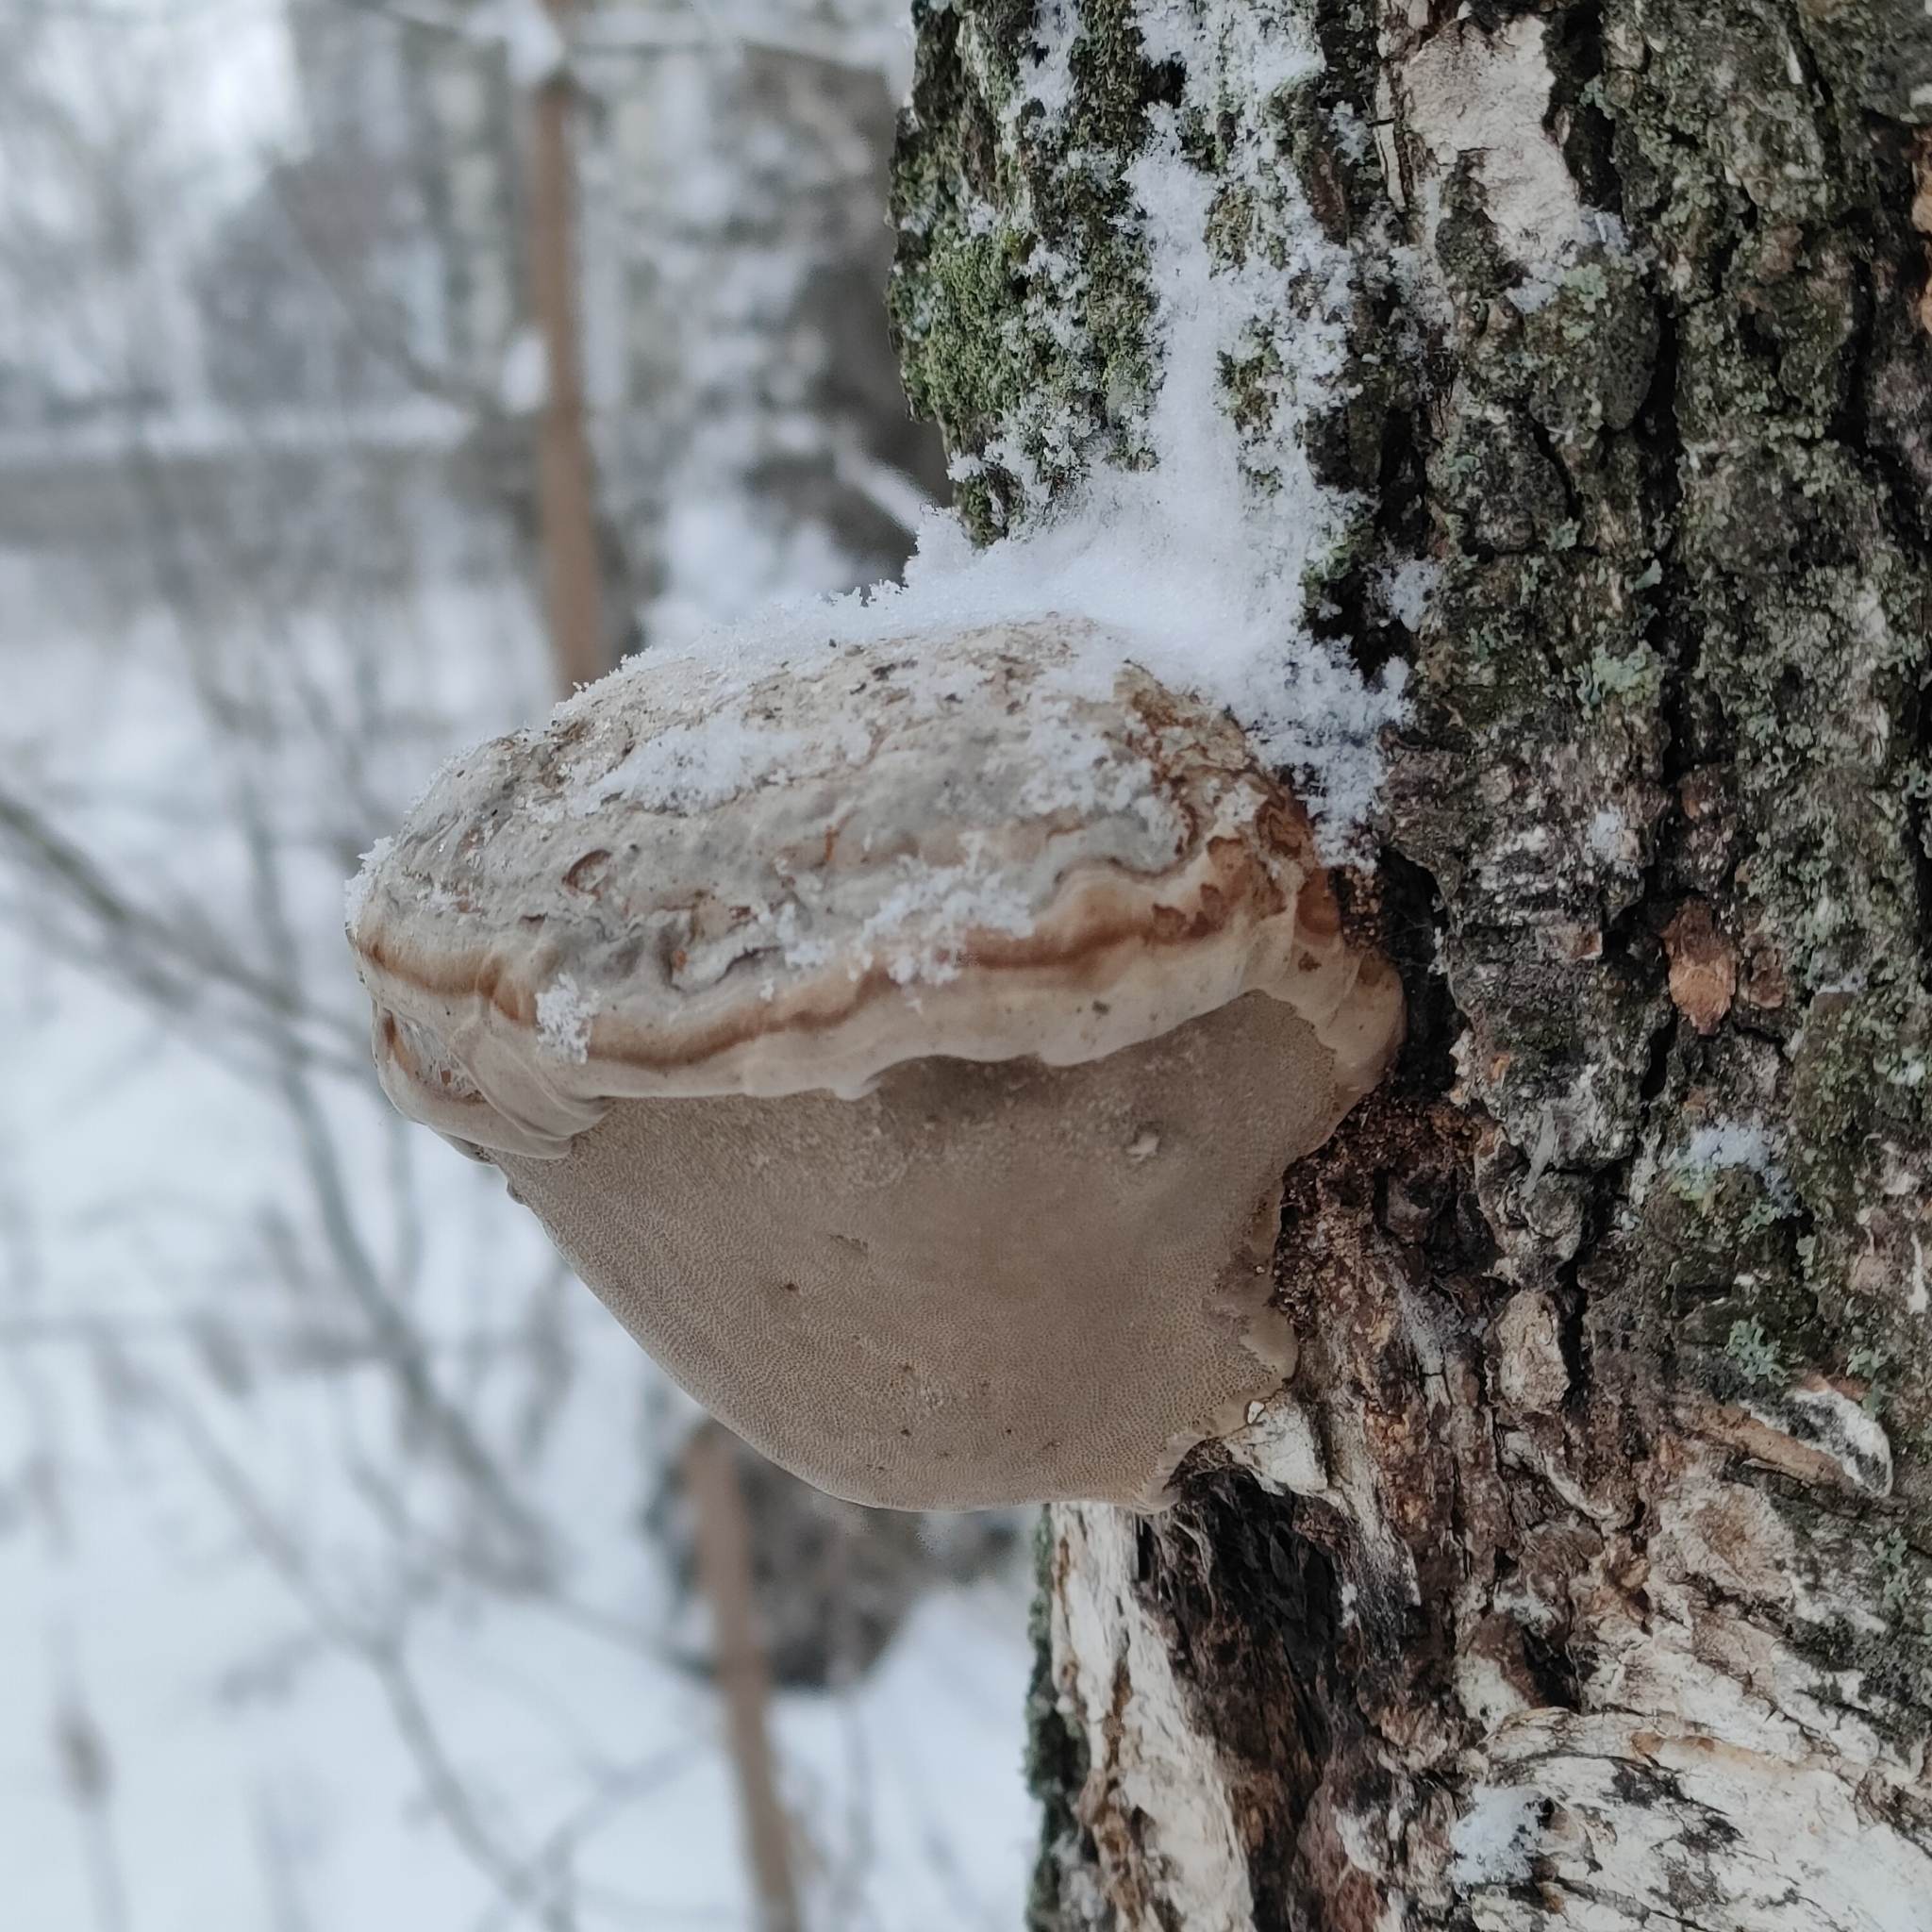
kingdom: Fungi
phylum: Basidiomycota
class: Agaricomycetes
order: Polyporales
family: Polyporaceae
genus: Fomes
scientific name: Fomes fomentarius
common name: Hoof fungus
